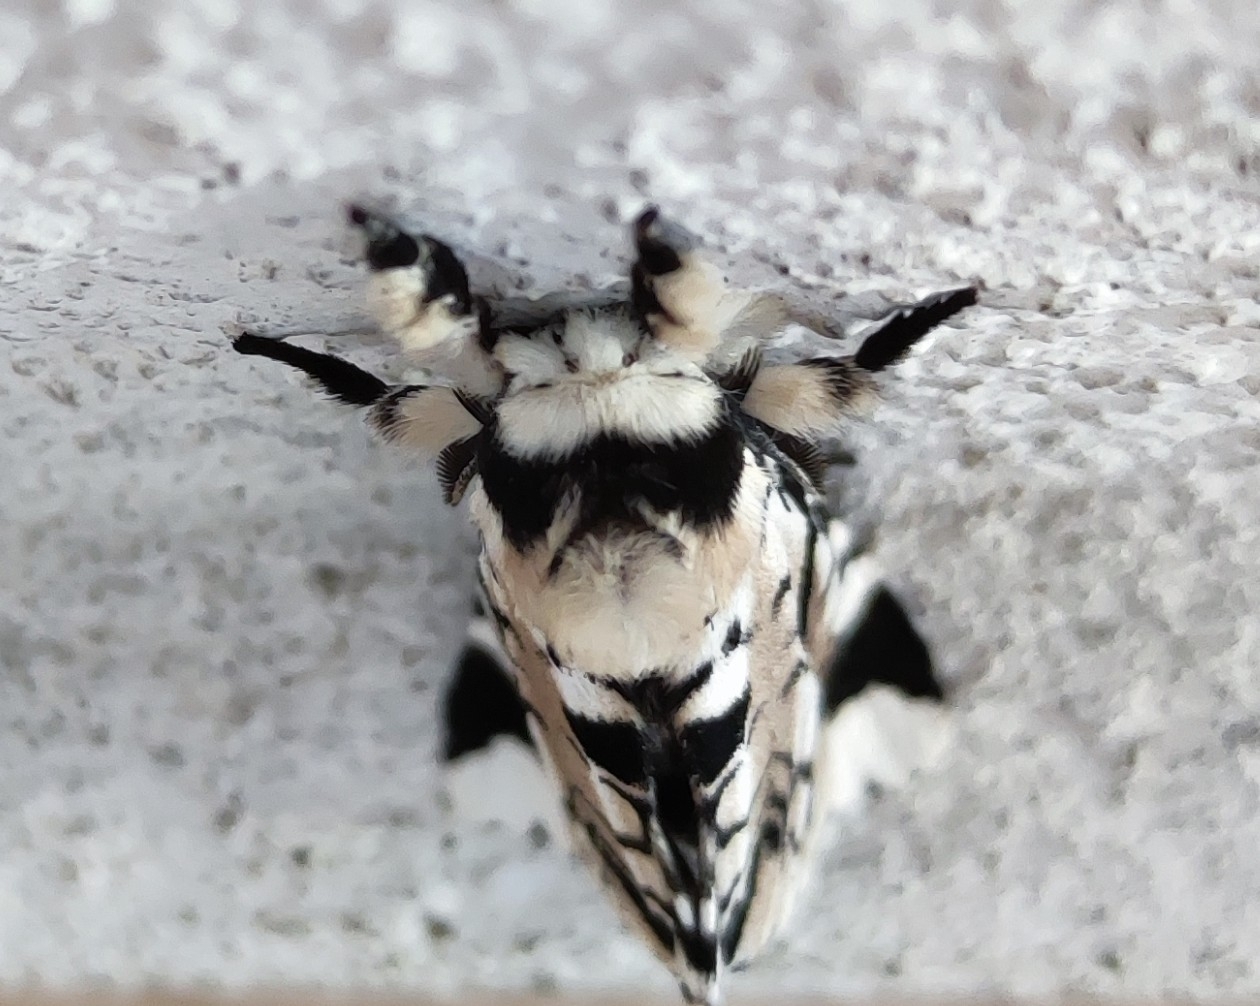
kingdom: Animalia
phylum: Arthropoda
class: Insecta
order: Lepidoptera
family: Notodontidae
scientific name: Notodontidae
